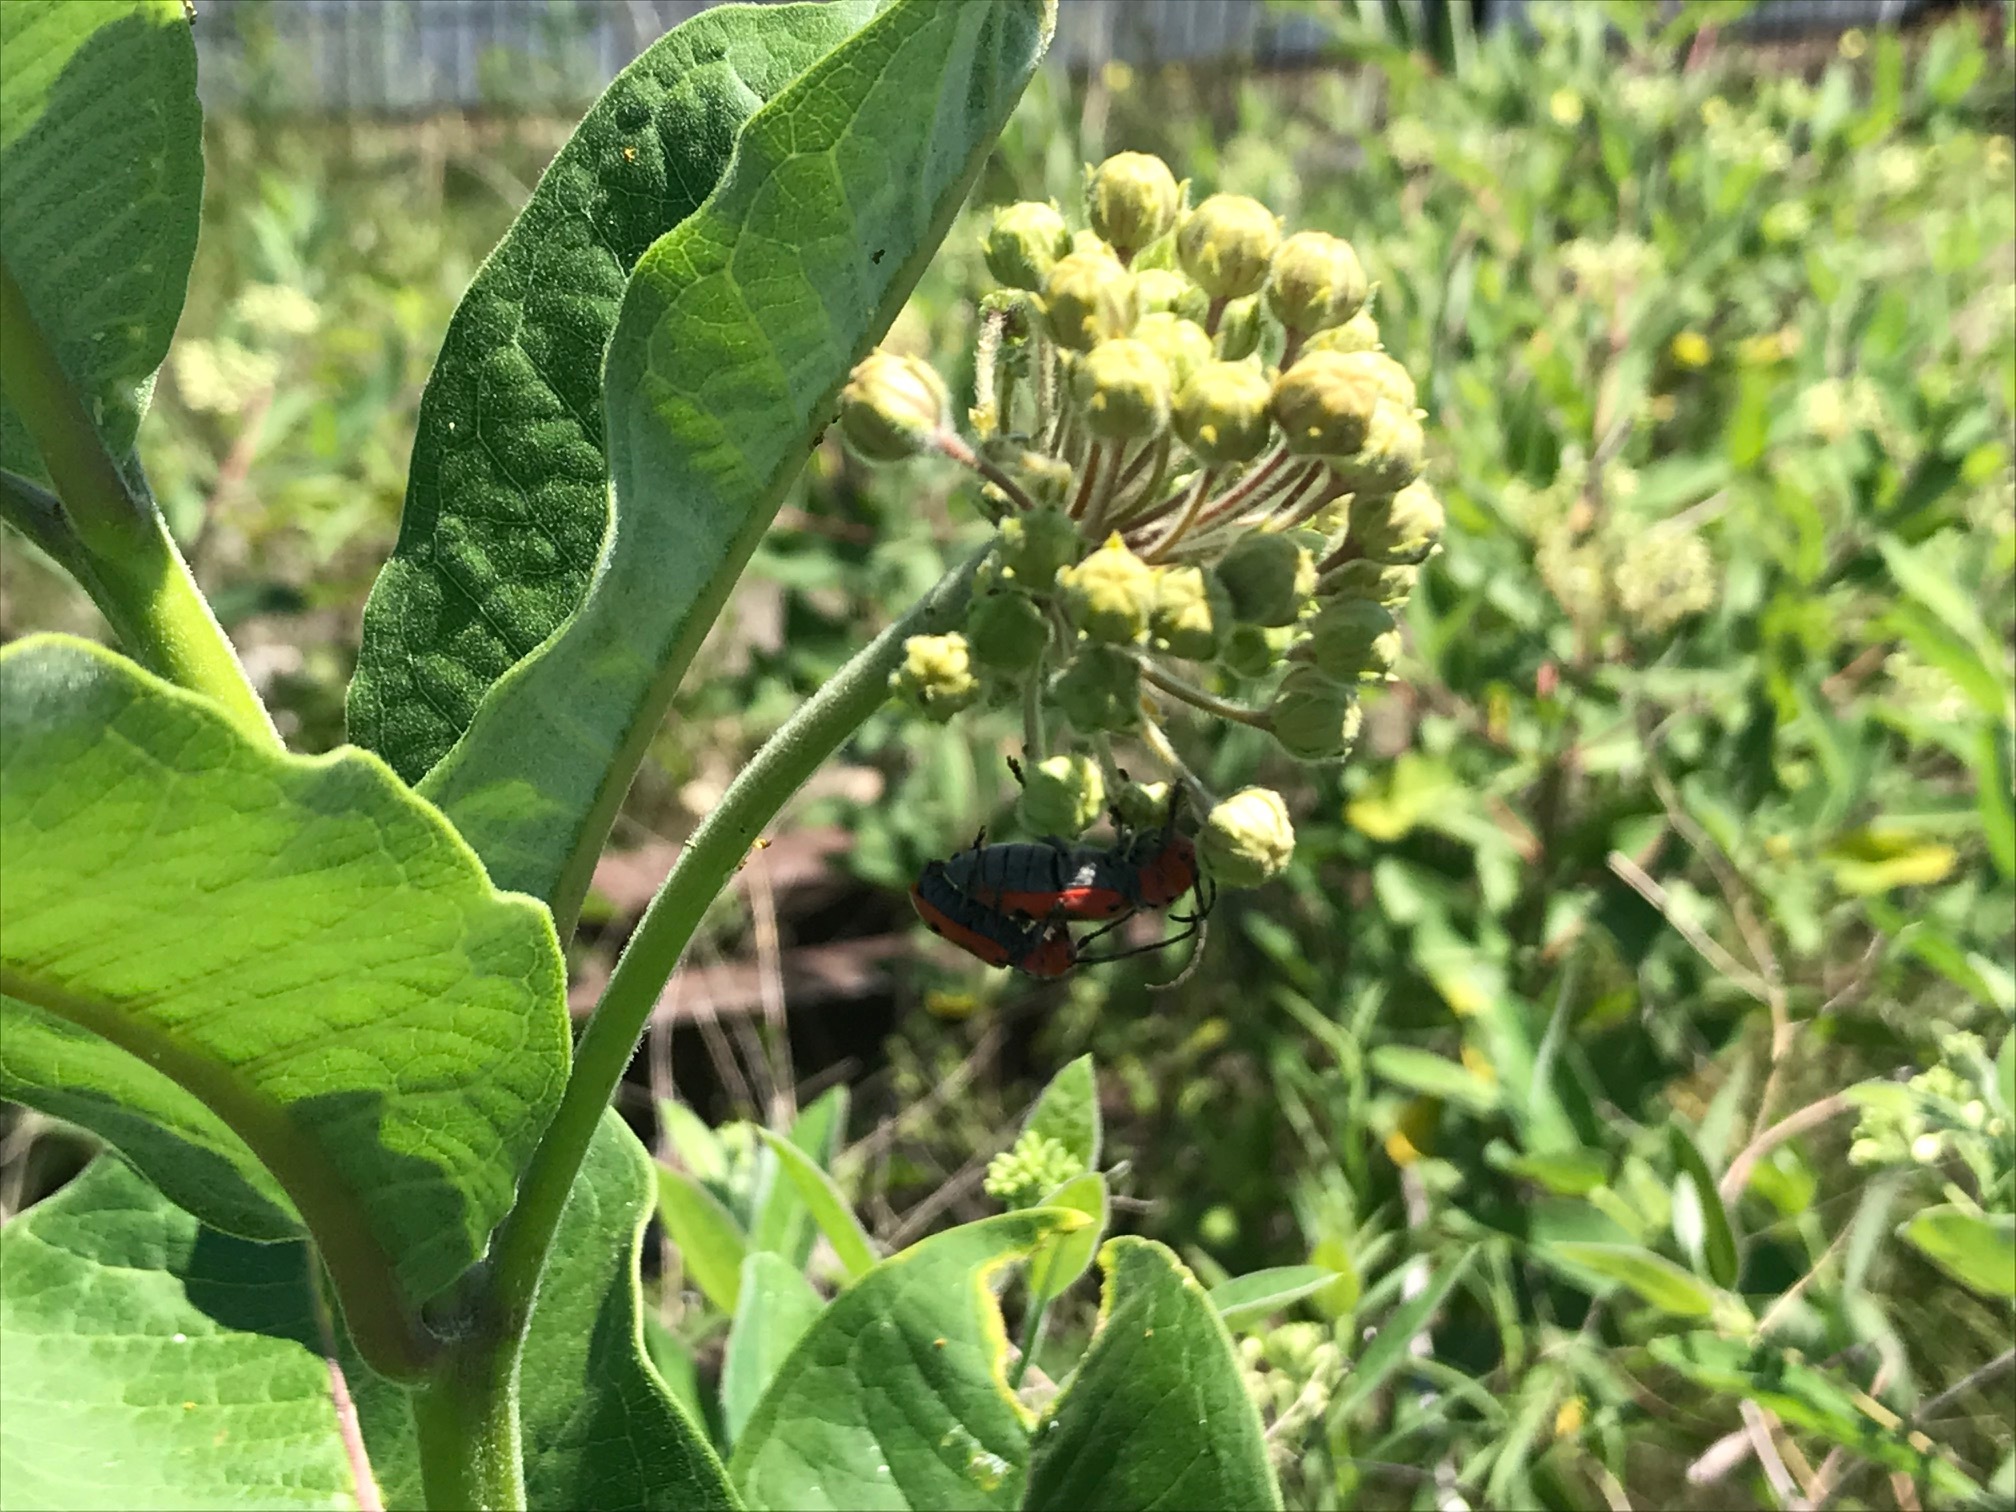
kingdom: Animalia
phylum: Arthropoda
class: Insecta
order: Coleoptera
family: Cerambycidae
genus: Tetraopes
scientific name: Tetraopes tetrophthalmus
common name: Red milkweed beetle
